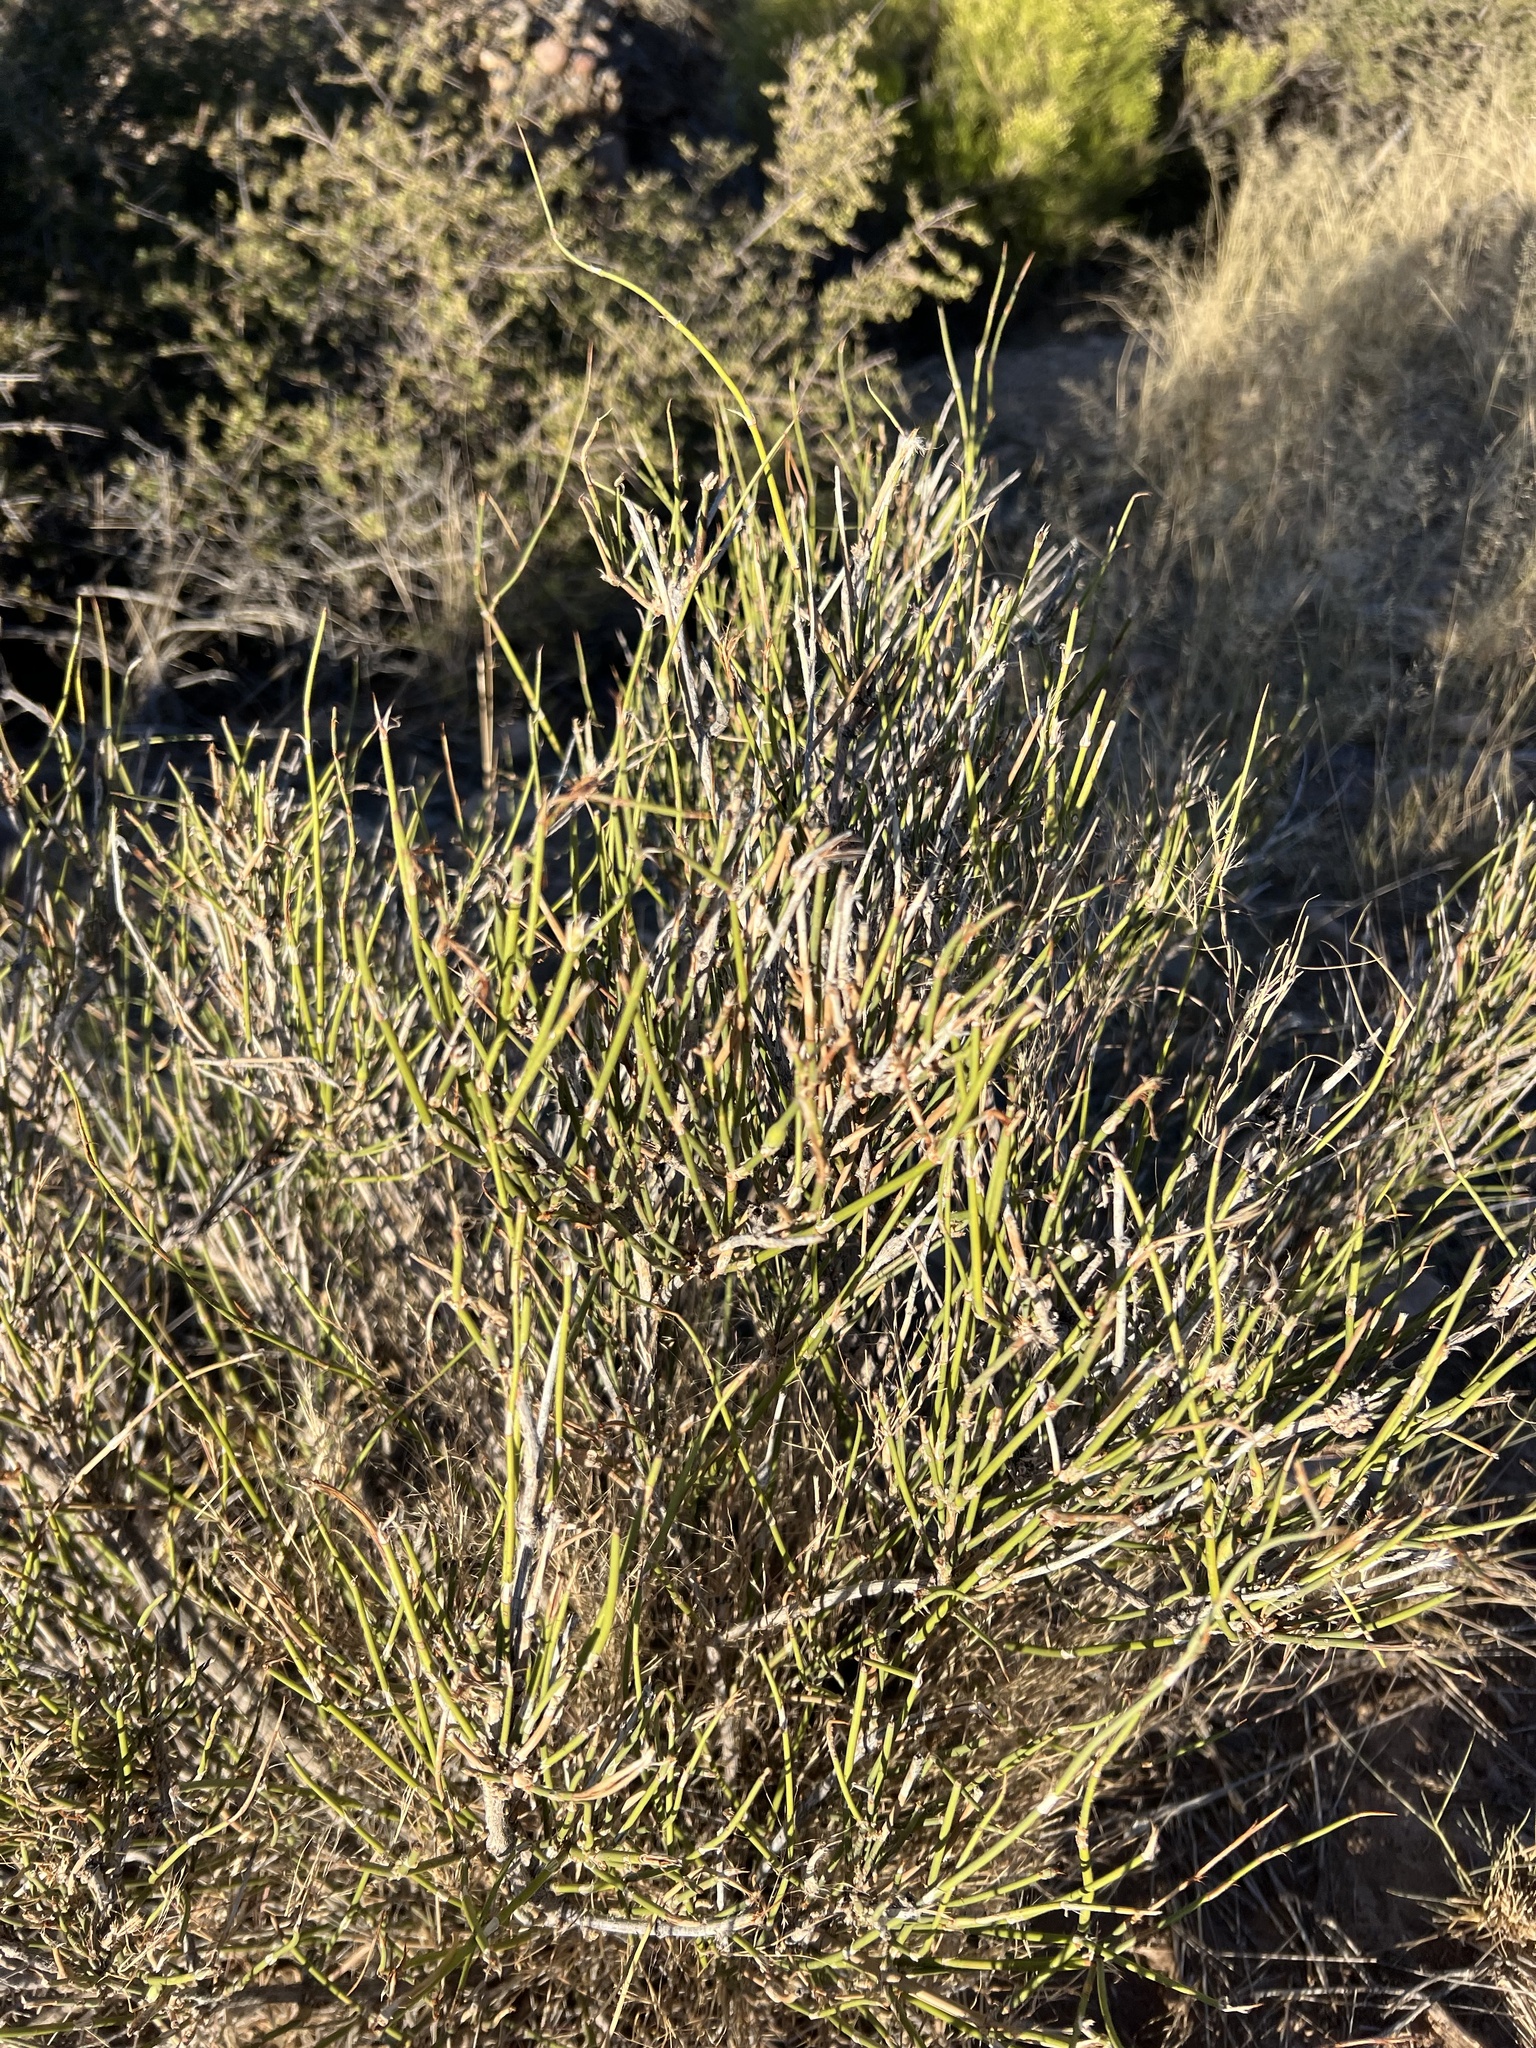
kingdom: Plantae
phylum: Tracheophyta
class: Gnetopsida
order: Ephedrales
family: Ephedraceae
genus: Ephedra
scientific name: Ephedra trifurca
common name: Mexican-tea
